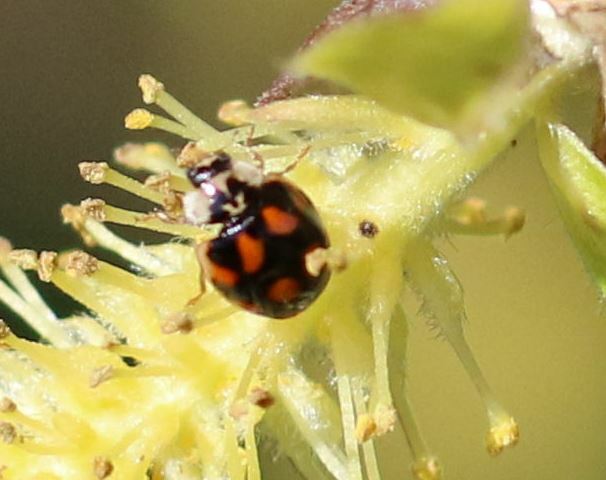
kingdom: Animalia
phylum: Arthropoda
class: Insecta
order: Coleoptera
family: Coccinellidae
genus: Adalia
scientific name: Adalia decempunctata
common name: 10-spot ladybird
